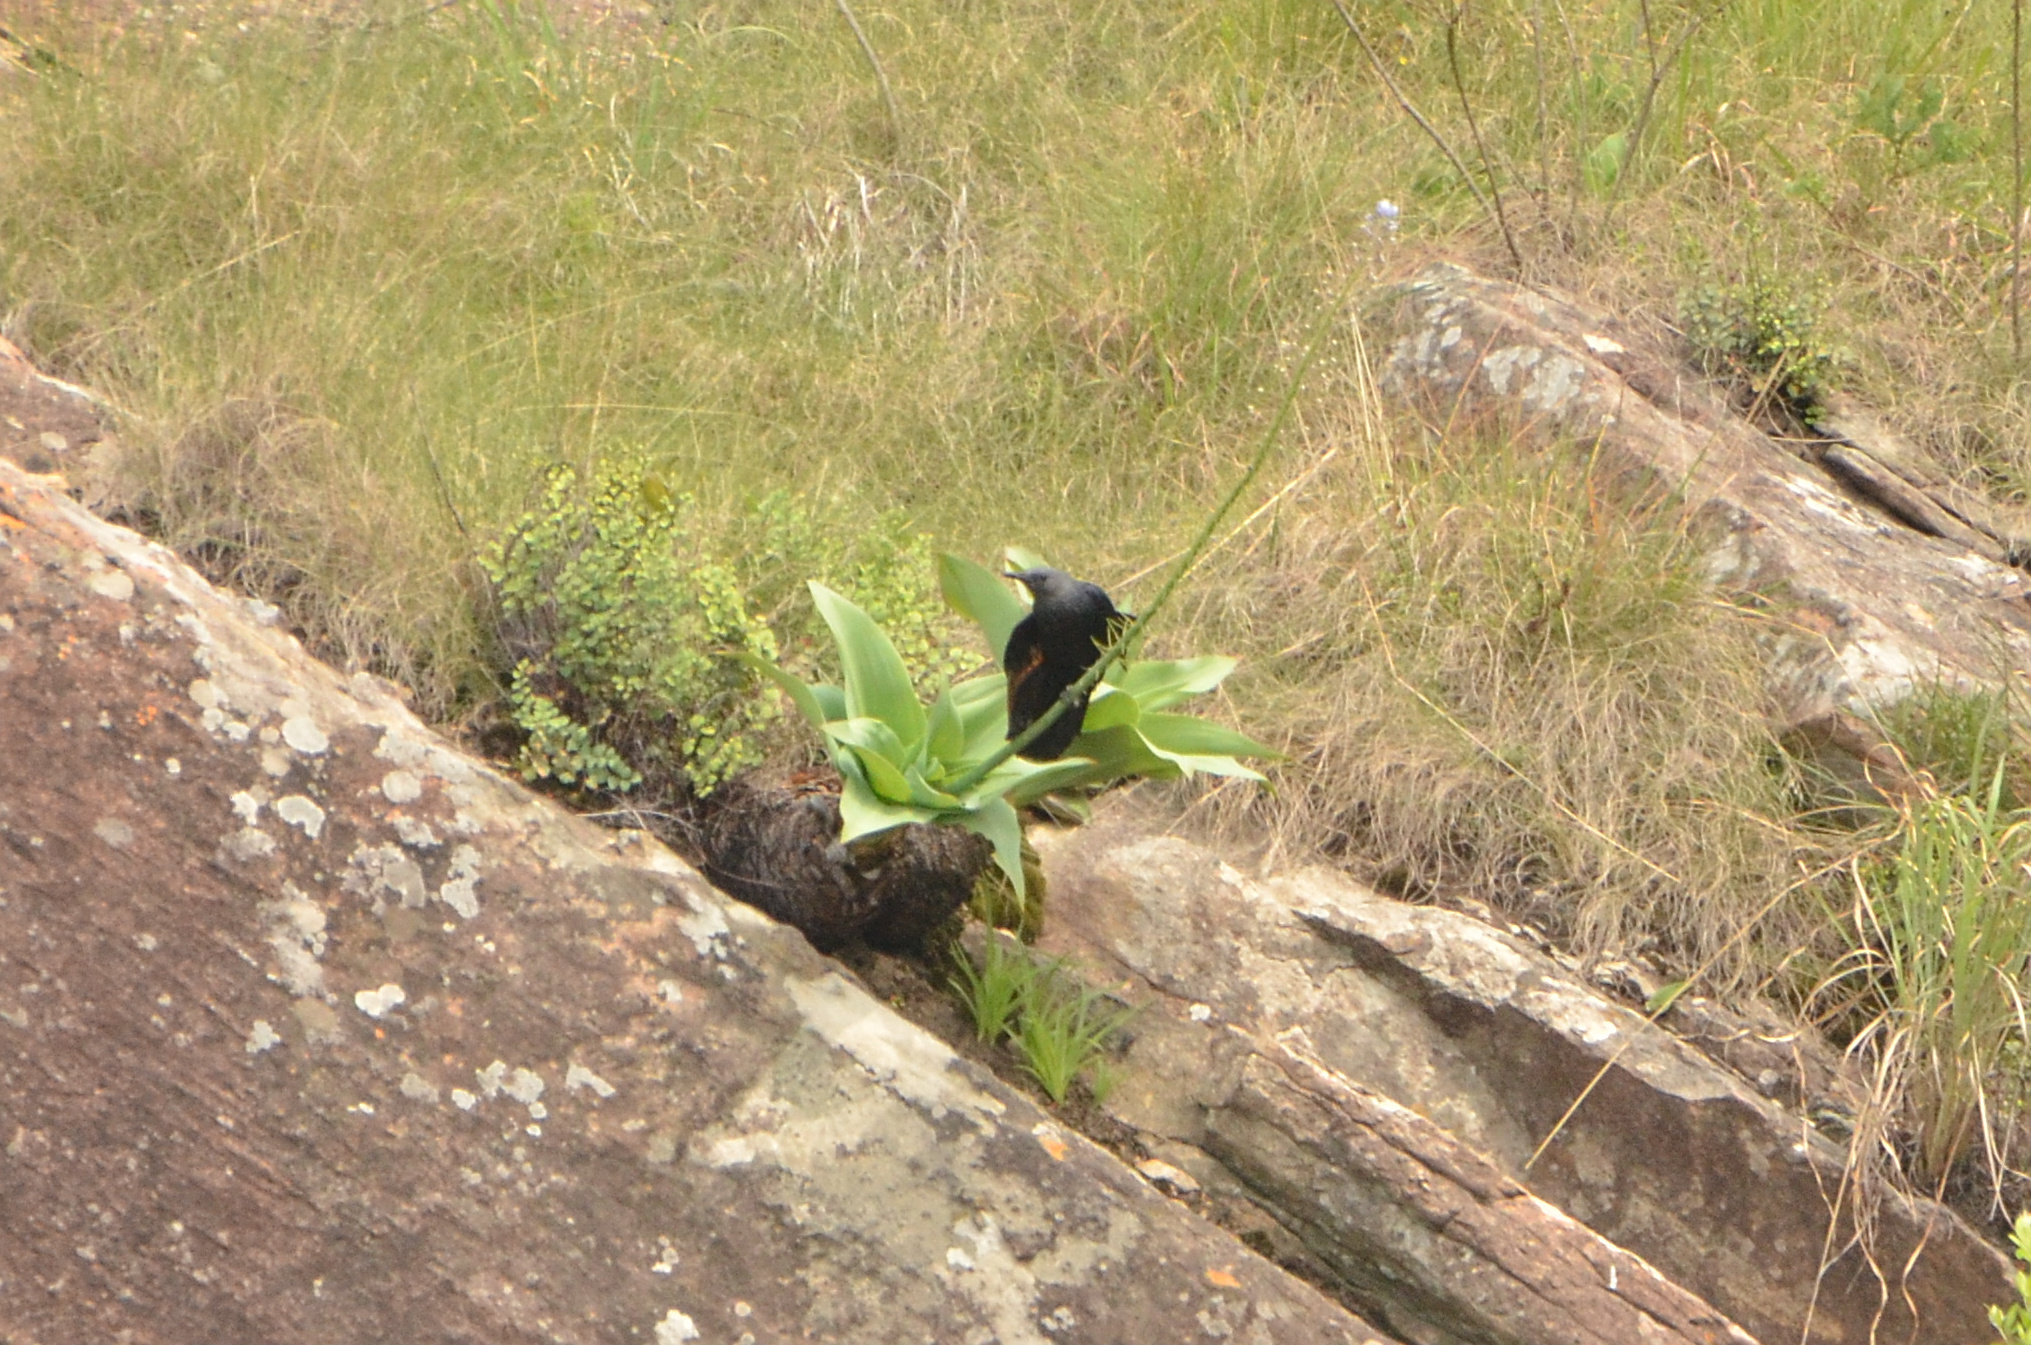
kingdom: Animalia
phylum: Chordata
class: Aves
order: Passeriformes
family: Sturnidae
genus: Onychognathus
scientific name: Onychognathus morio
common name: Red-winged starling
